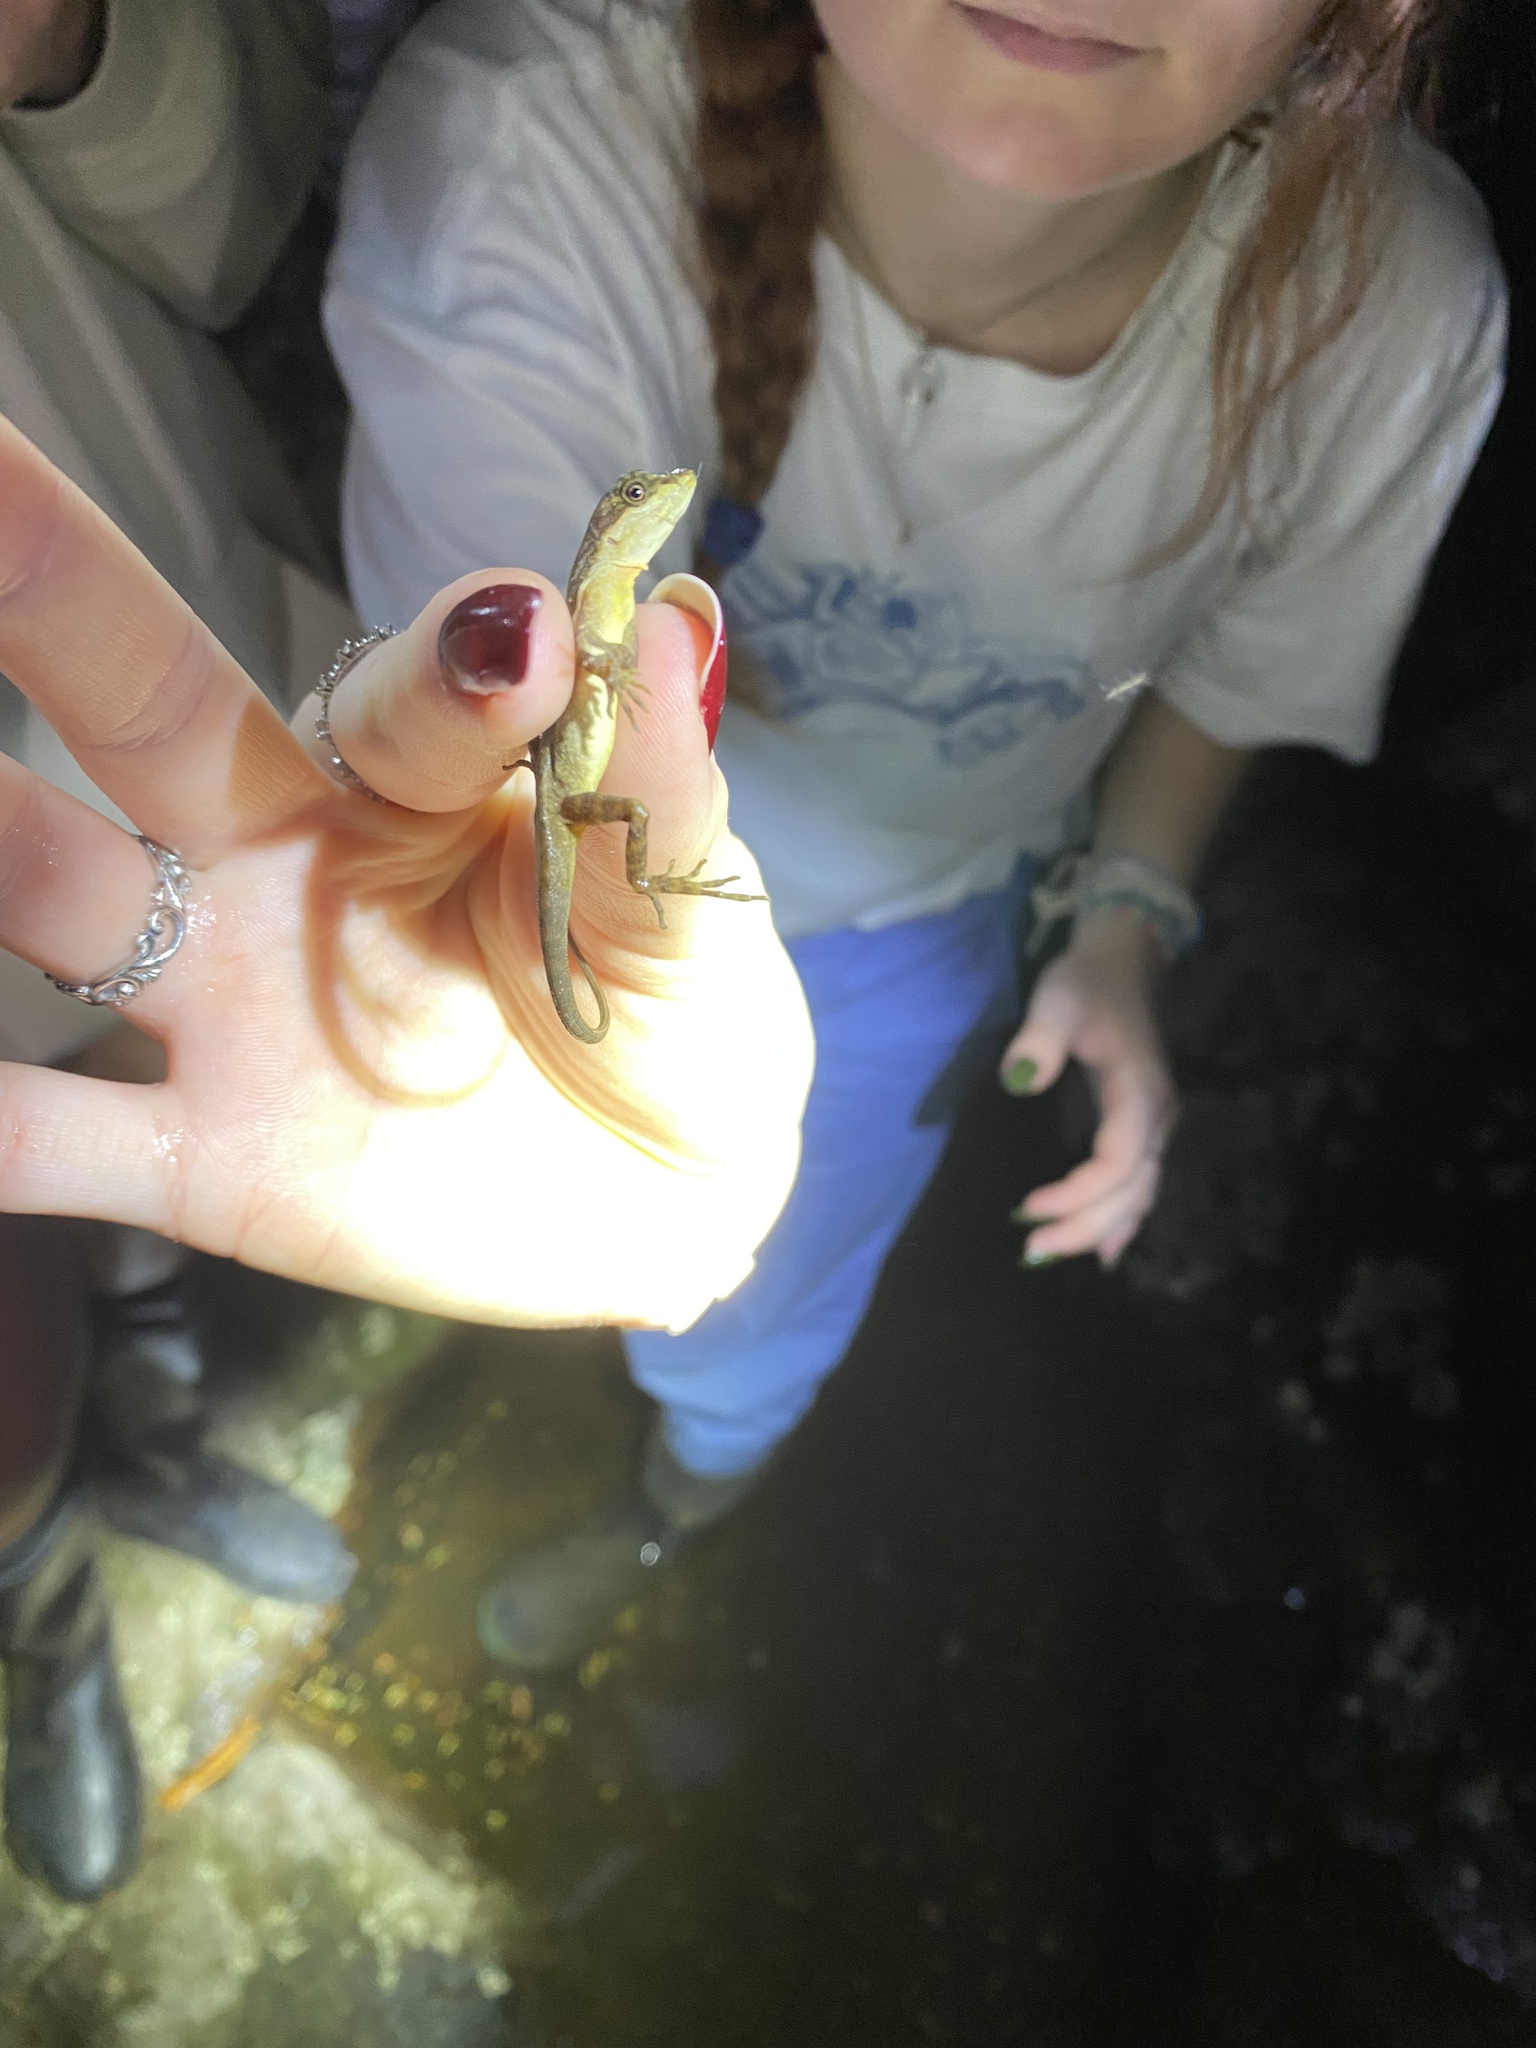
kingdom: Animalia
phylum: Chordata
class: Squamata
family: Dactyloidae
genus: Anolis
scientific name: Anolis lemurinus
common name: Ghost anole
